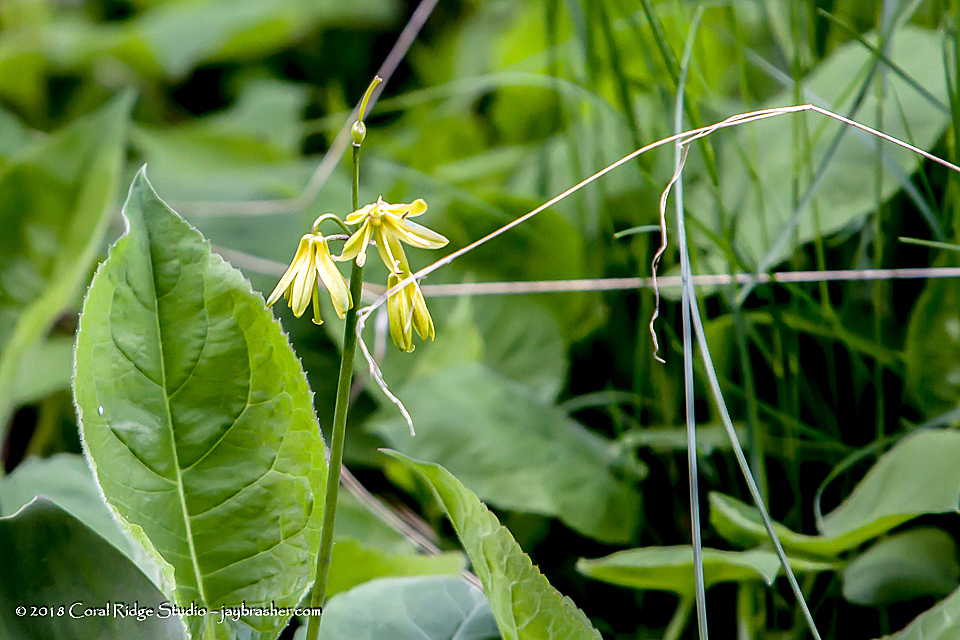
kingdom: Plantae
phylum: Tracheophyta
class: Liliopsida
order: Liliales
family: Liliaceae
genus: Clintonia
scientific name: Clintonia borealis
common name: Yellow clintonia
